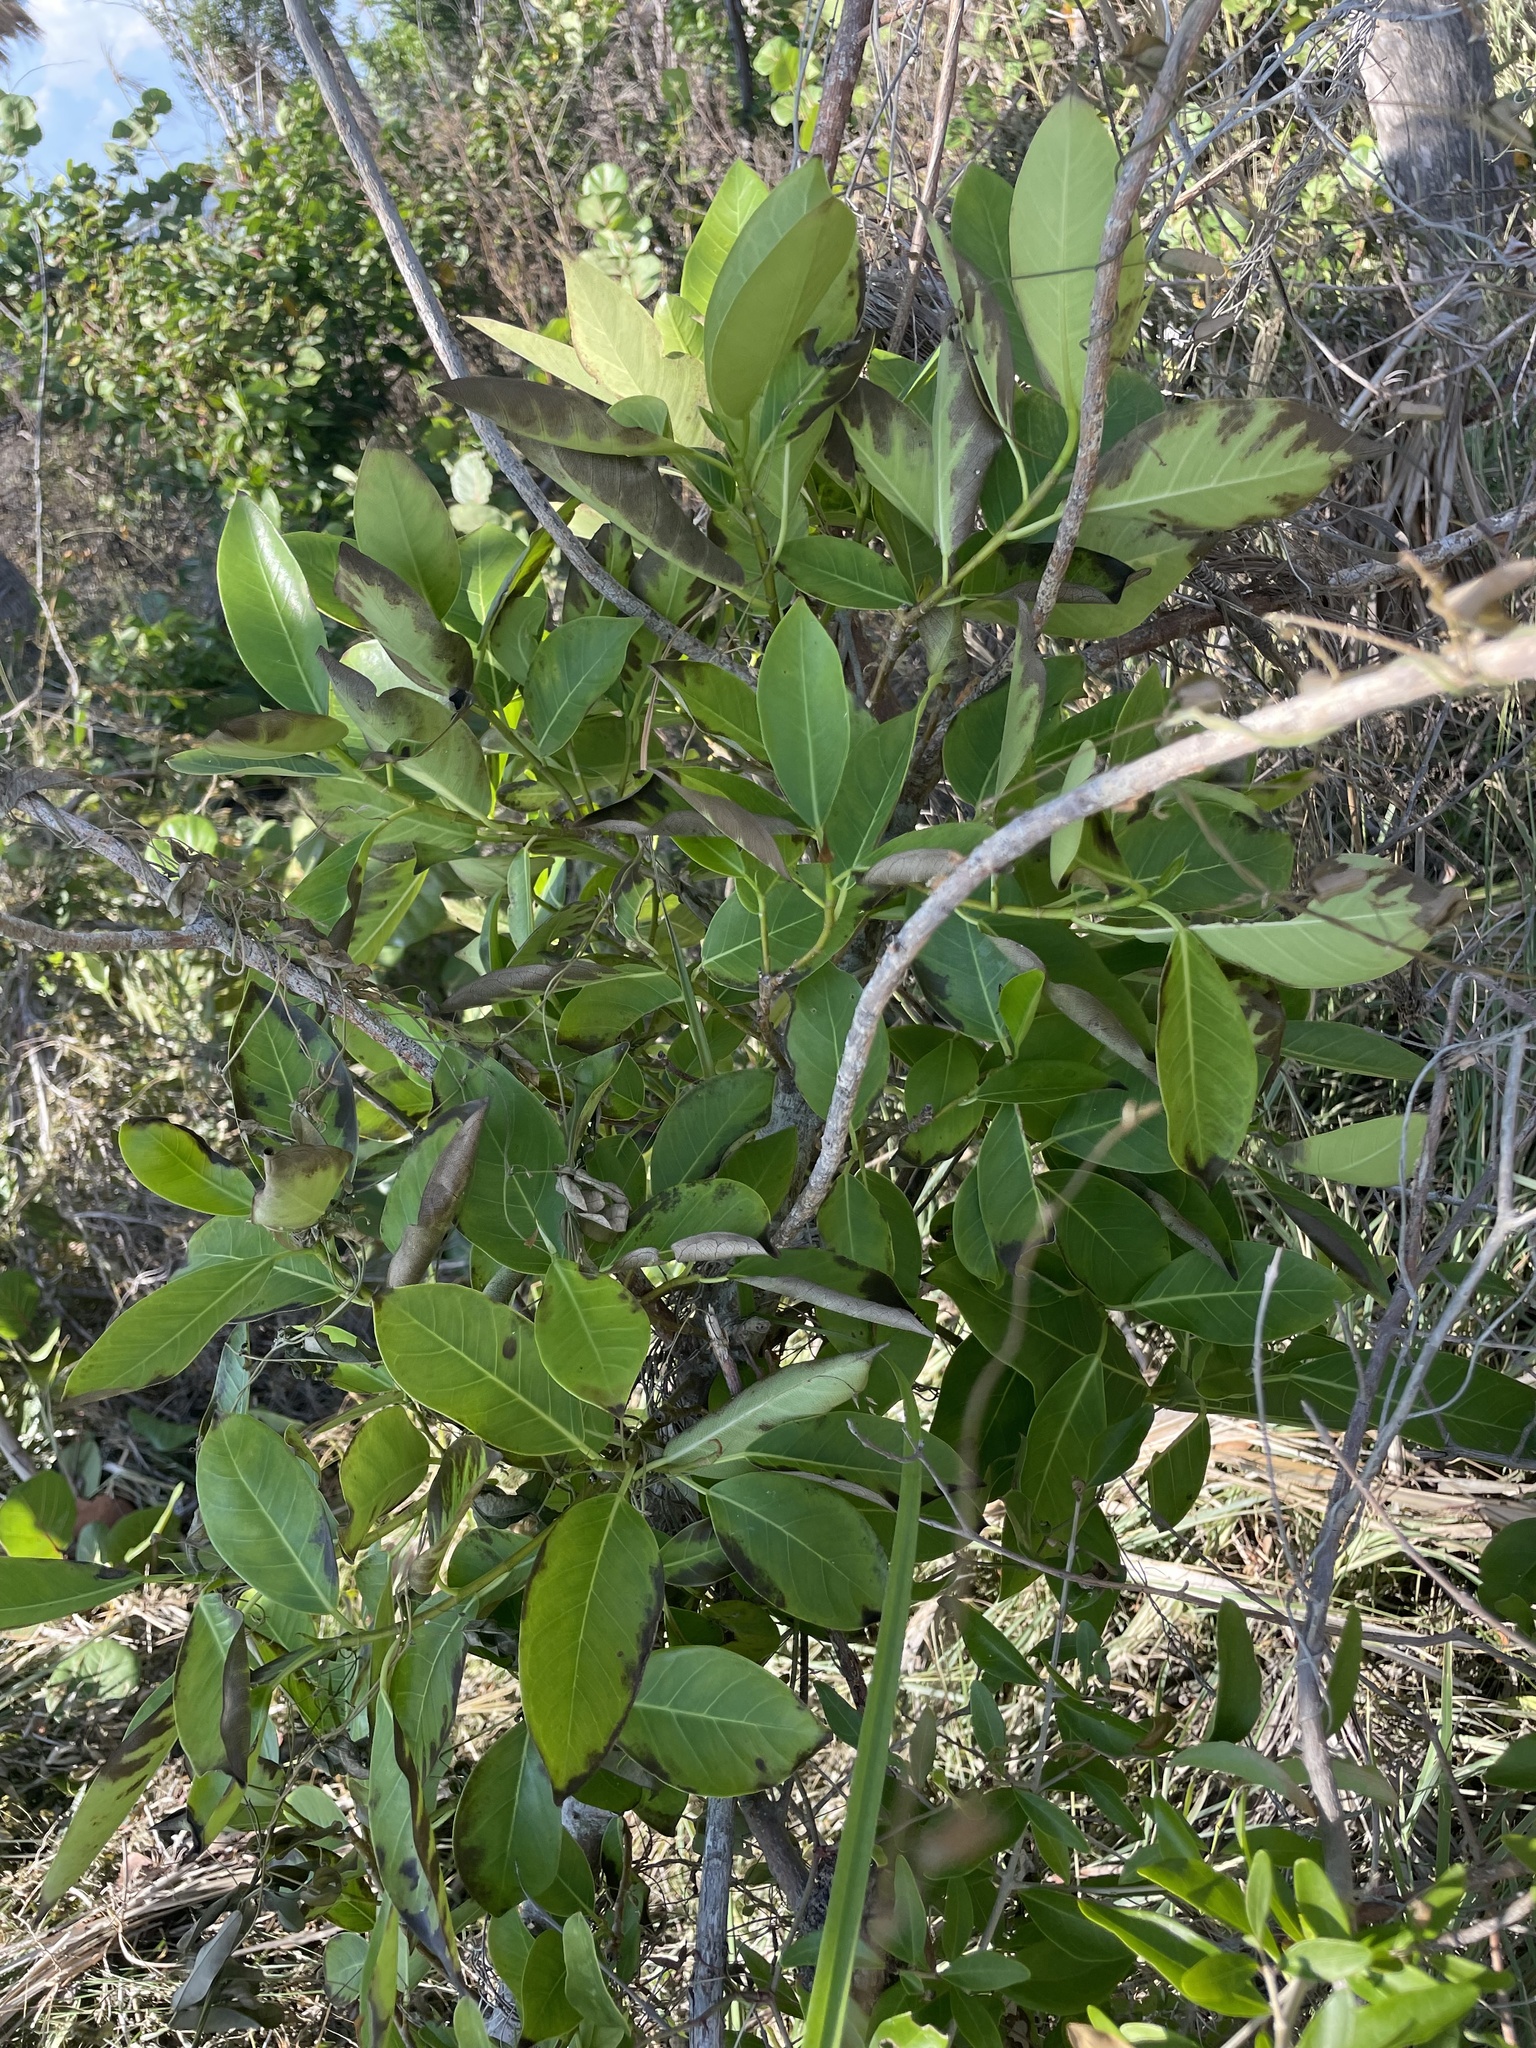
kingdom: Plantae
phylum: Tracheophyta
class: Magnoliopsida
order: Rosales
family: Moraceae
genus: Ficus
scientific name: Ficus aurea
